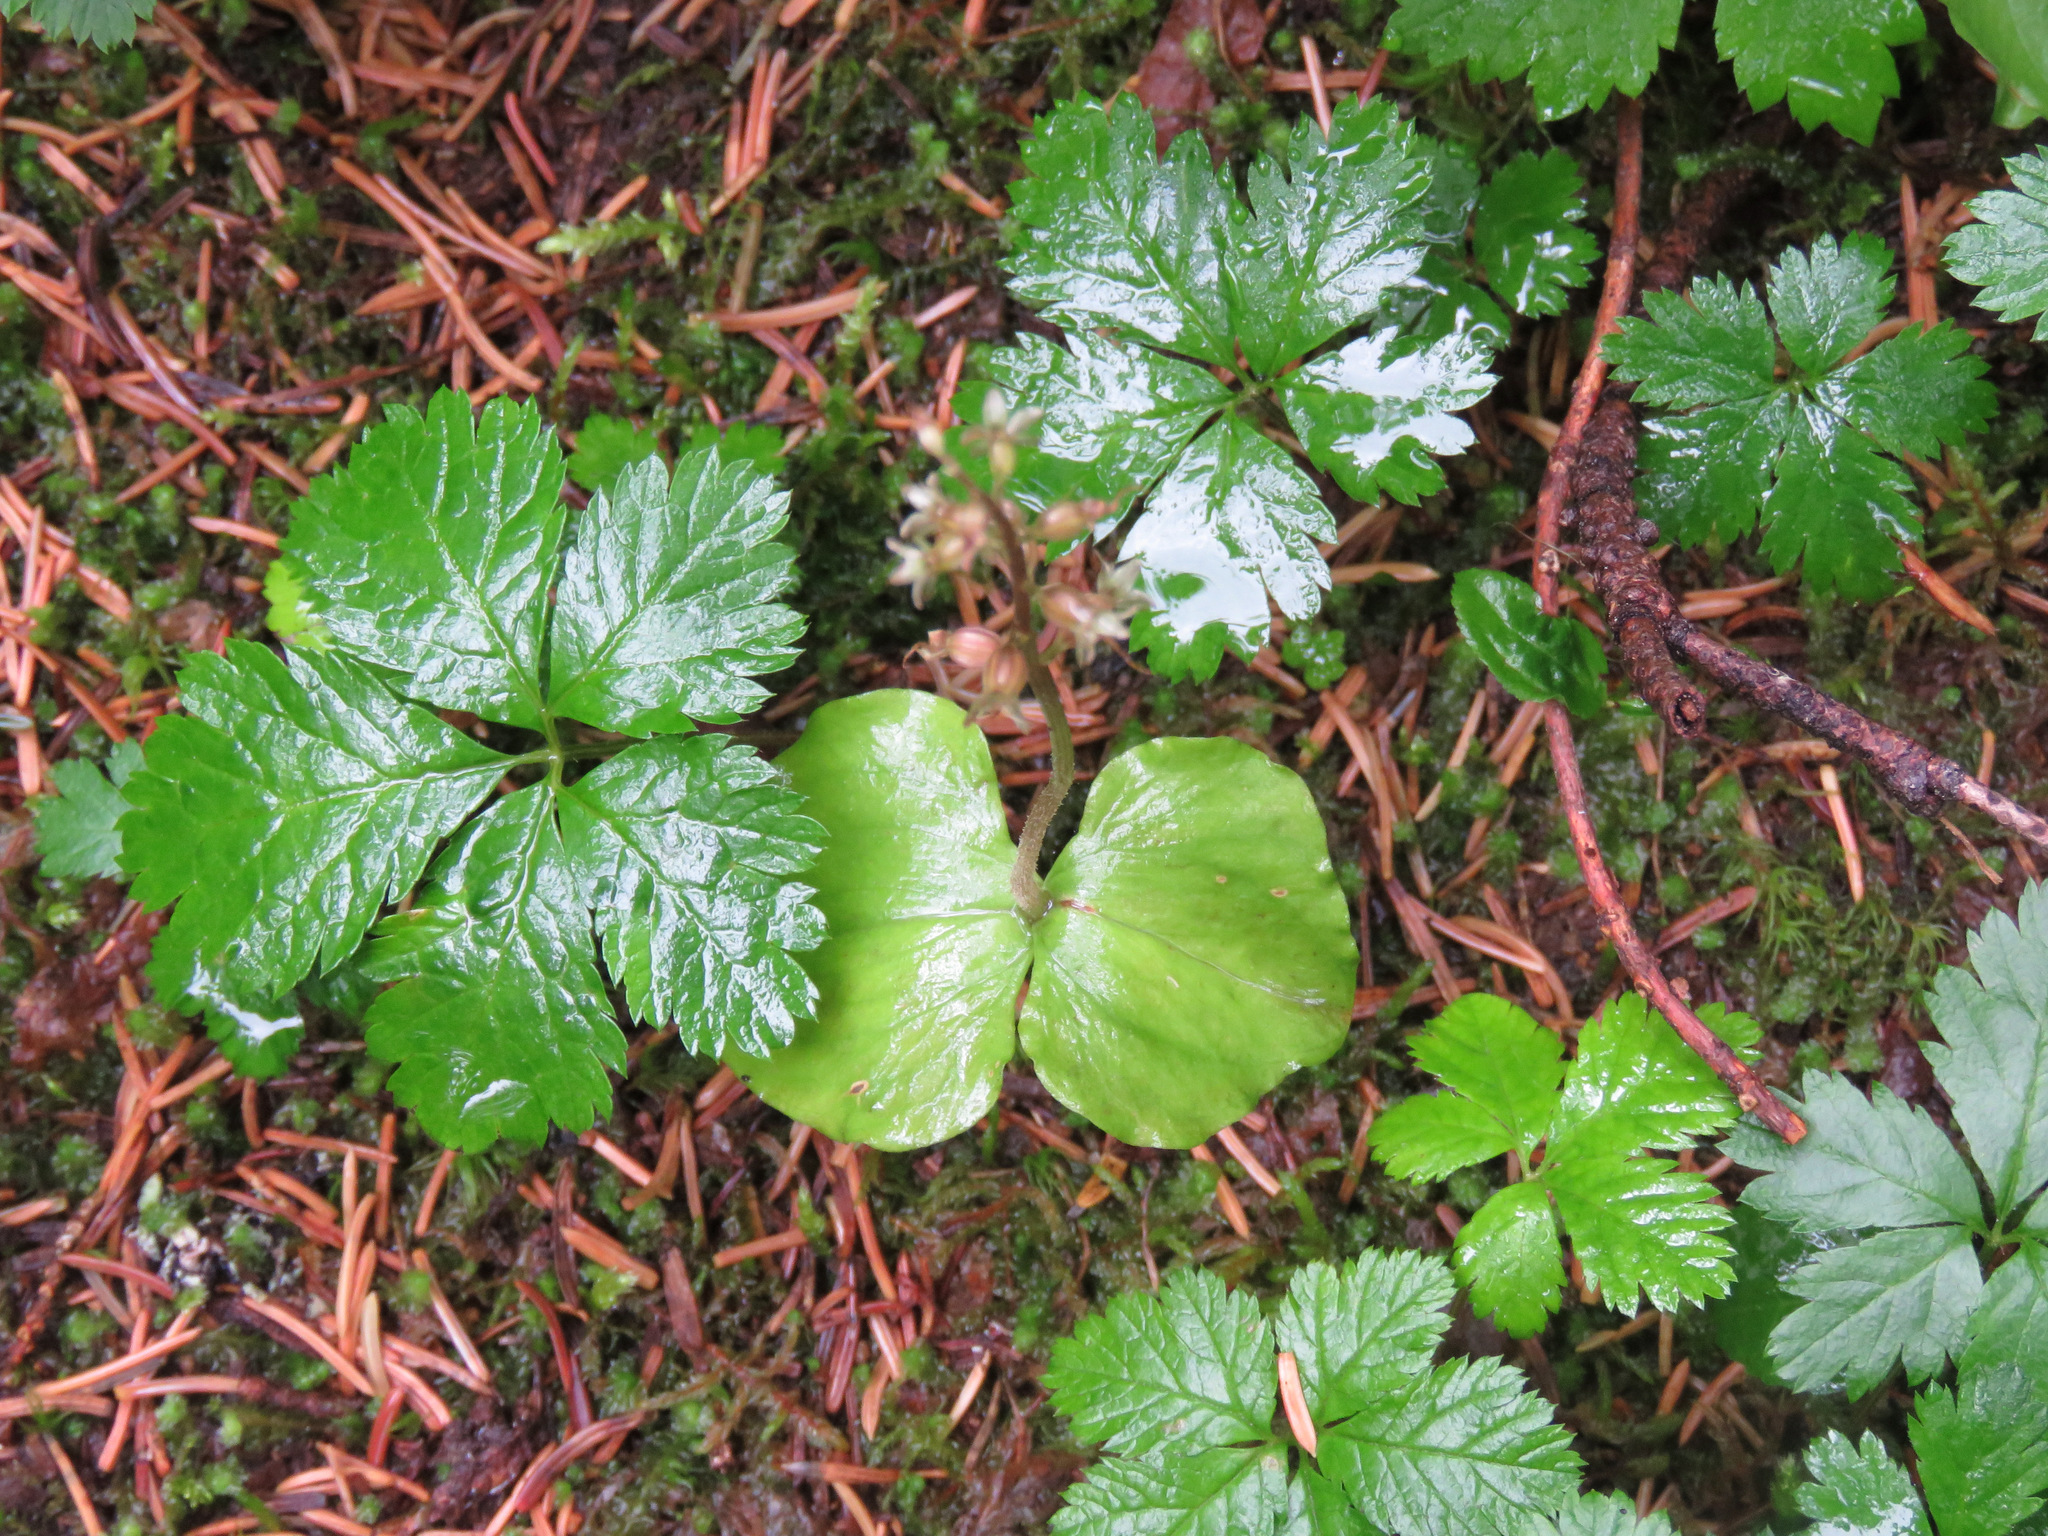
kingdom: Plantae
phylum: Tracheophyta
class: Magnoliopsida
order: Rosales
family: Rosaceae
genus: Rubus
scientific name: Rubus pedatus
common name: Creeping raspberry
